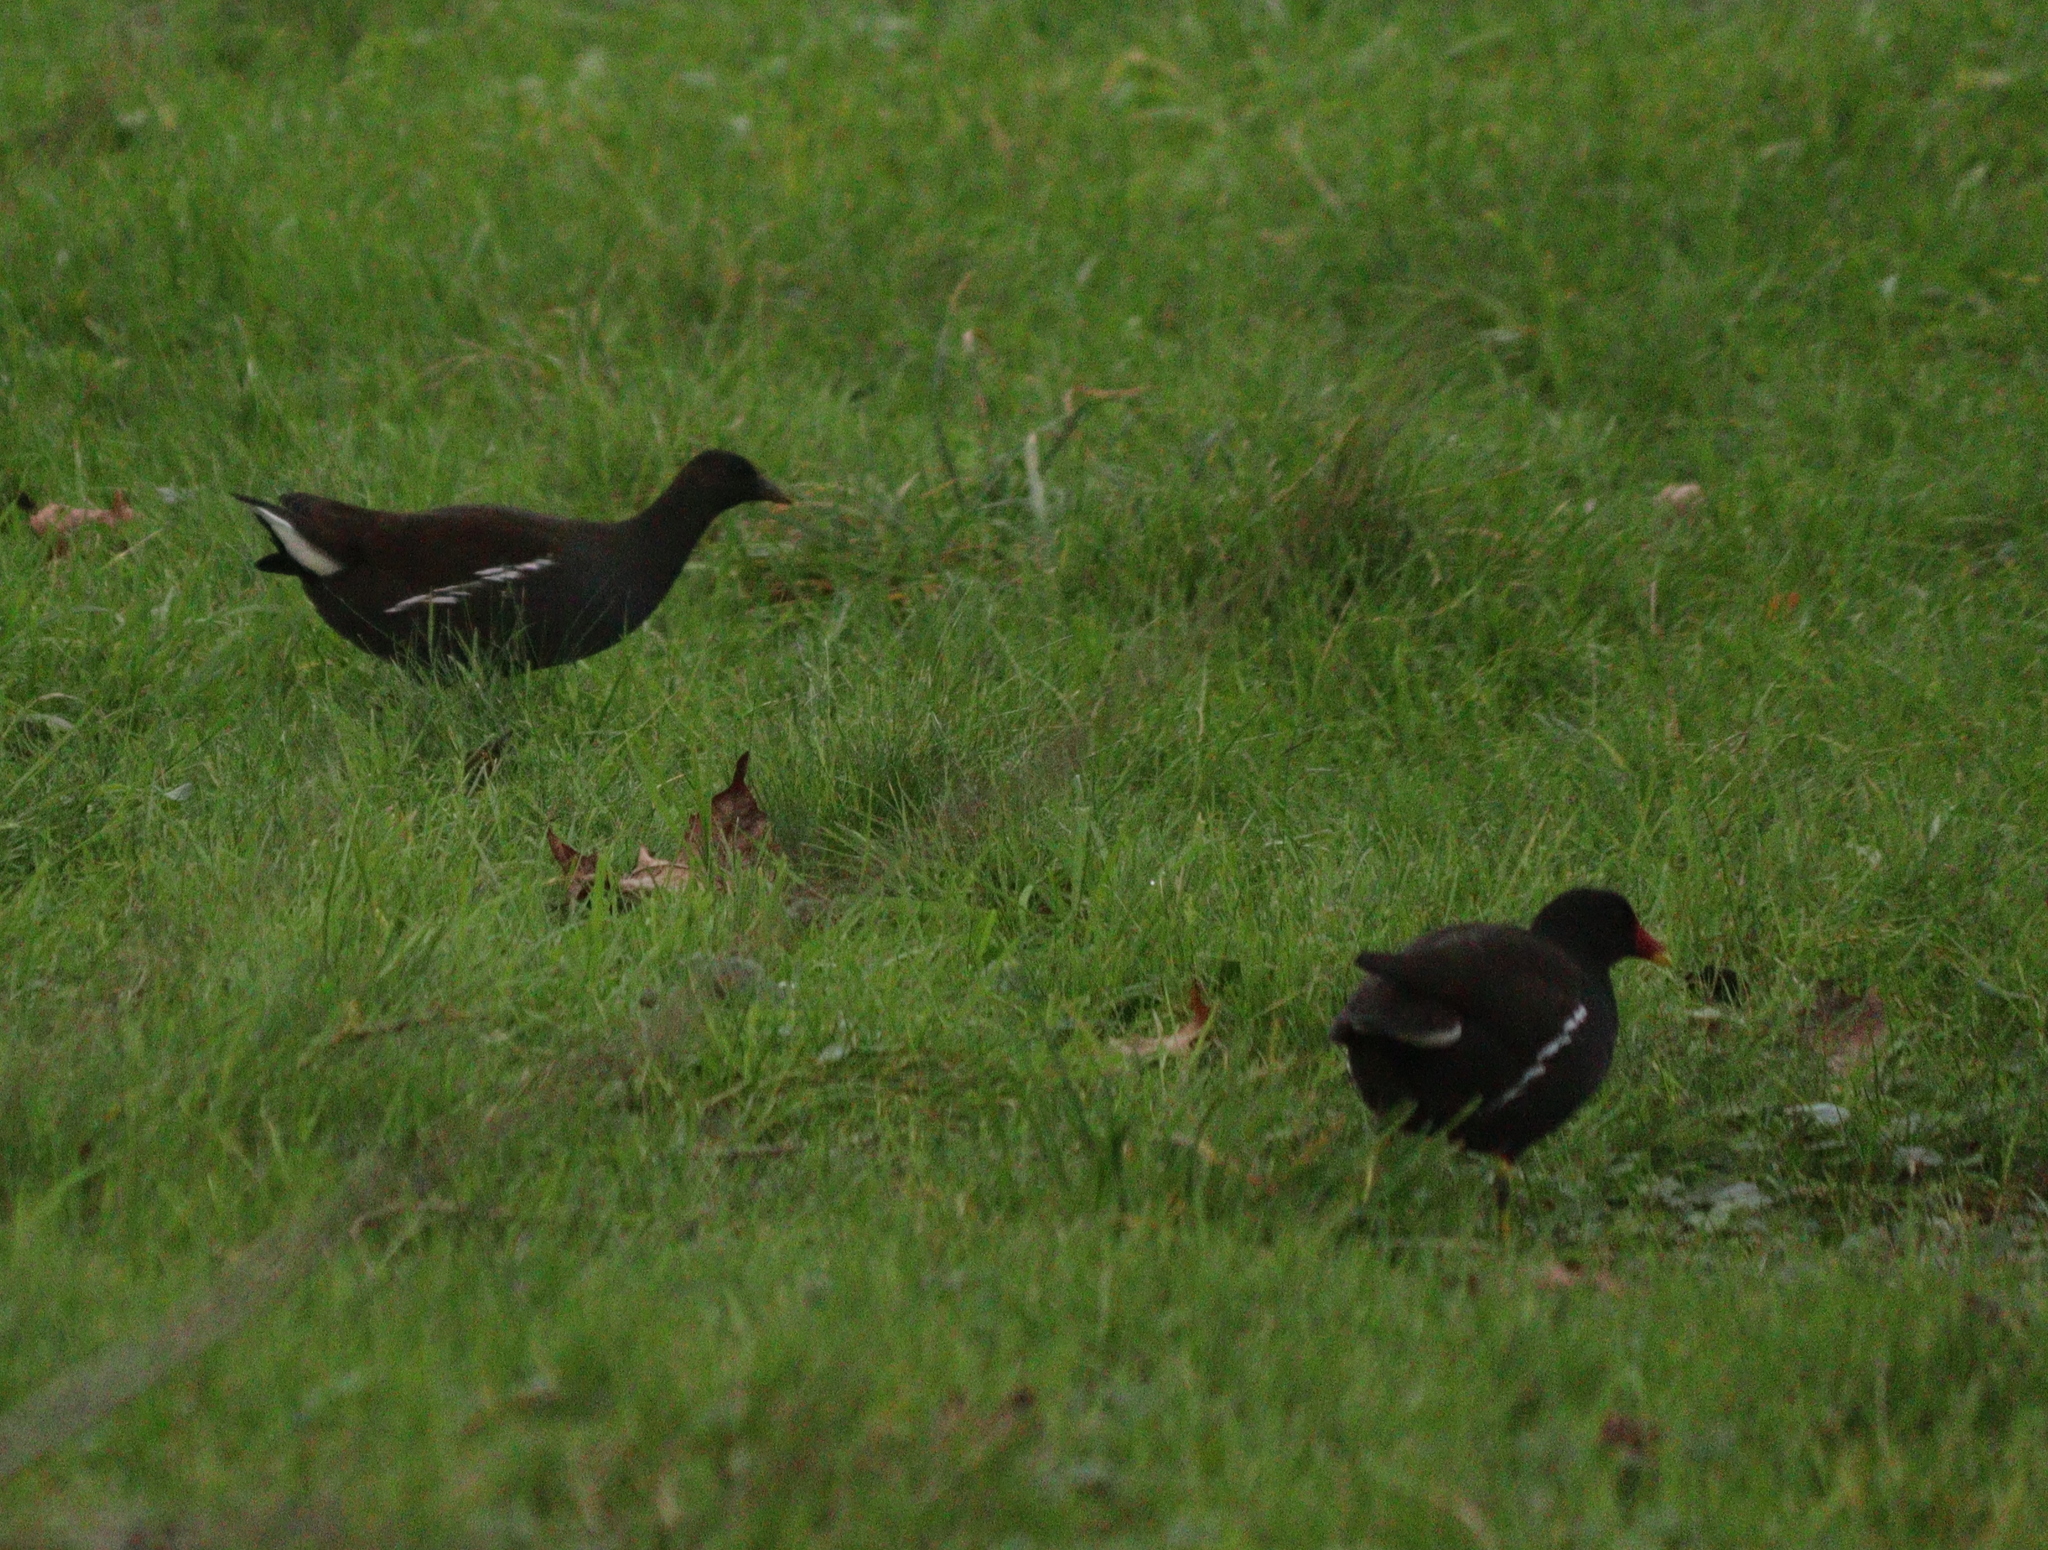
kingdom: Animalia
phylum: Chordata
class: Aves
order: Gruiformes
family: Rallidae
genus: Gallinula
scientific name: Gallinula chloropus
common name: Common moorhen
